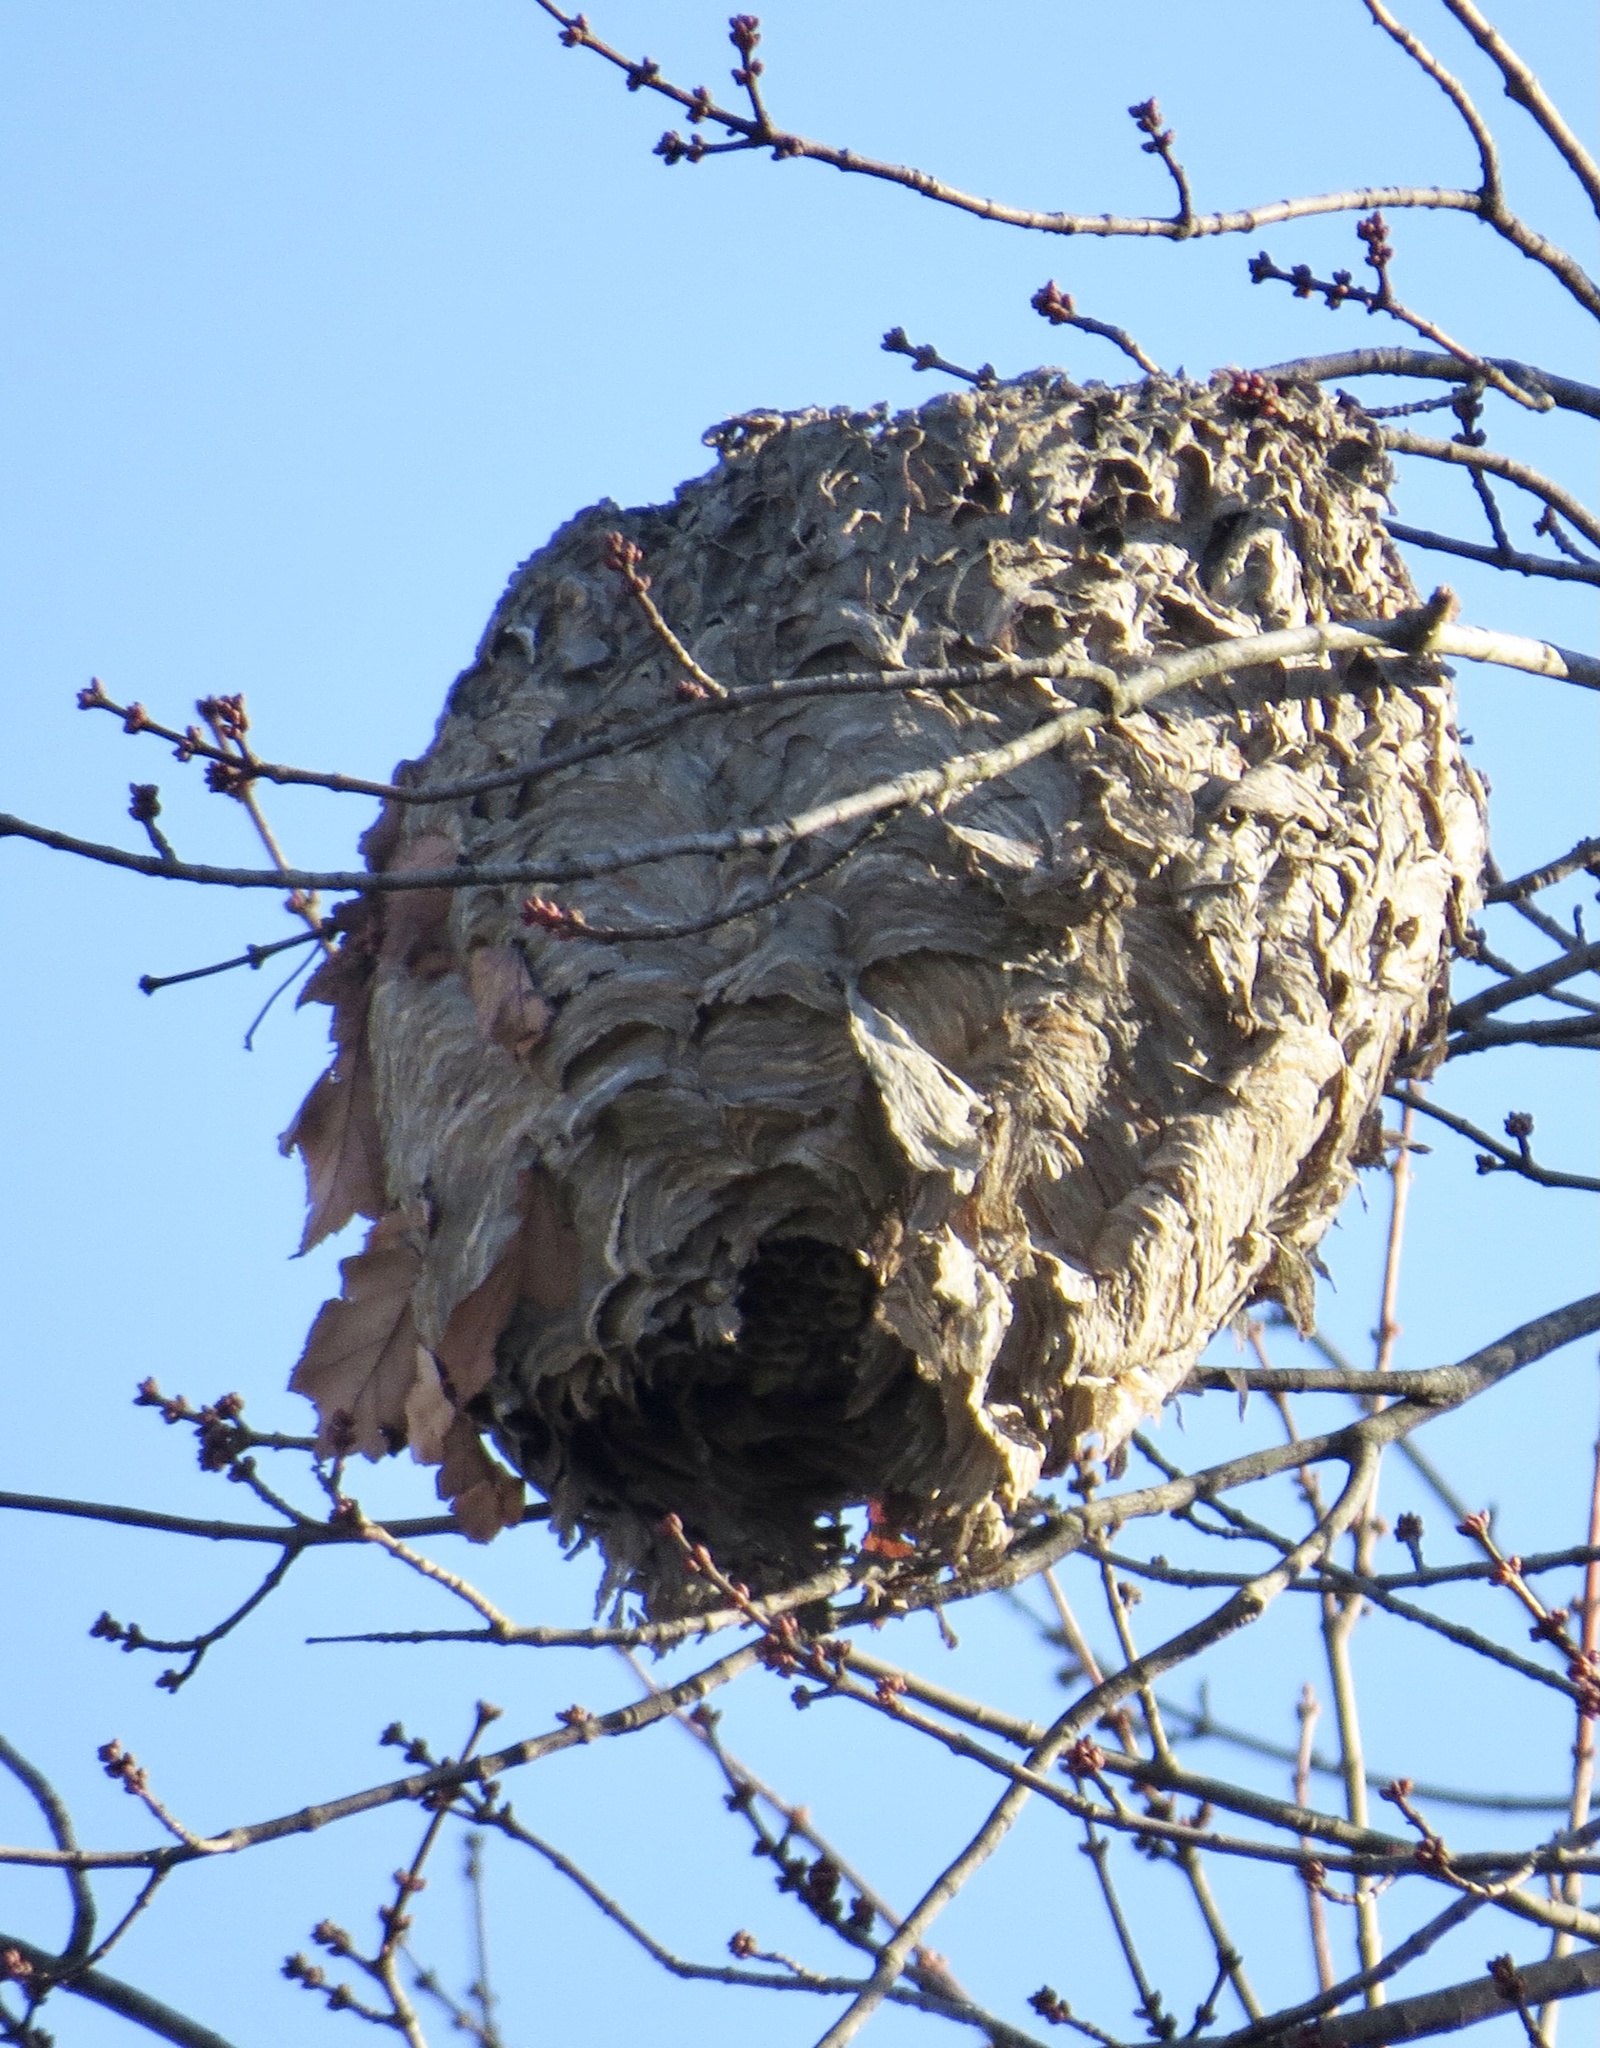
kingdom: Animalia
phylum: Arthropoda
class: Insecta
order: Hymenoptera
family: Vespidae
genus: Dolichovespula
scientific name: Dolichovespula maculata
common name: Bald-faced hornet
